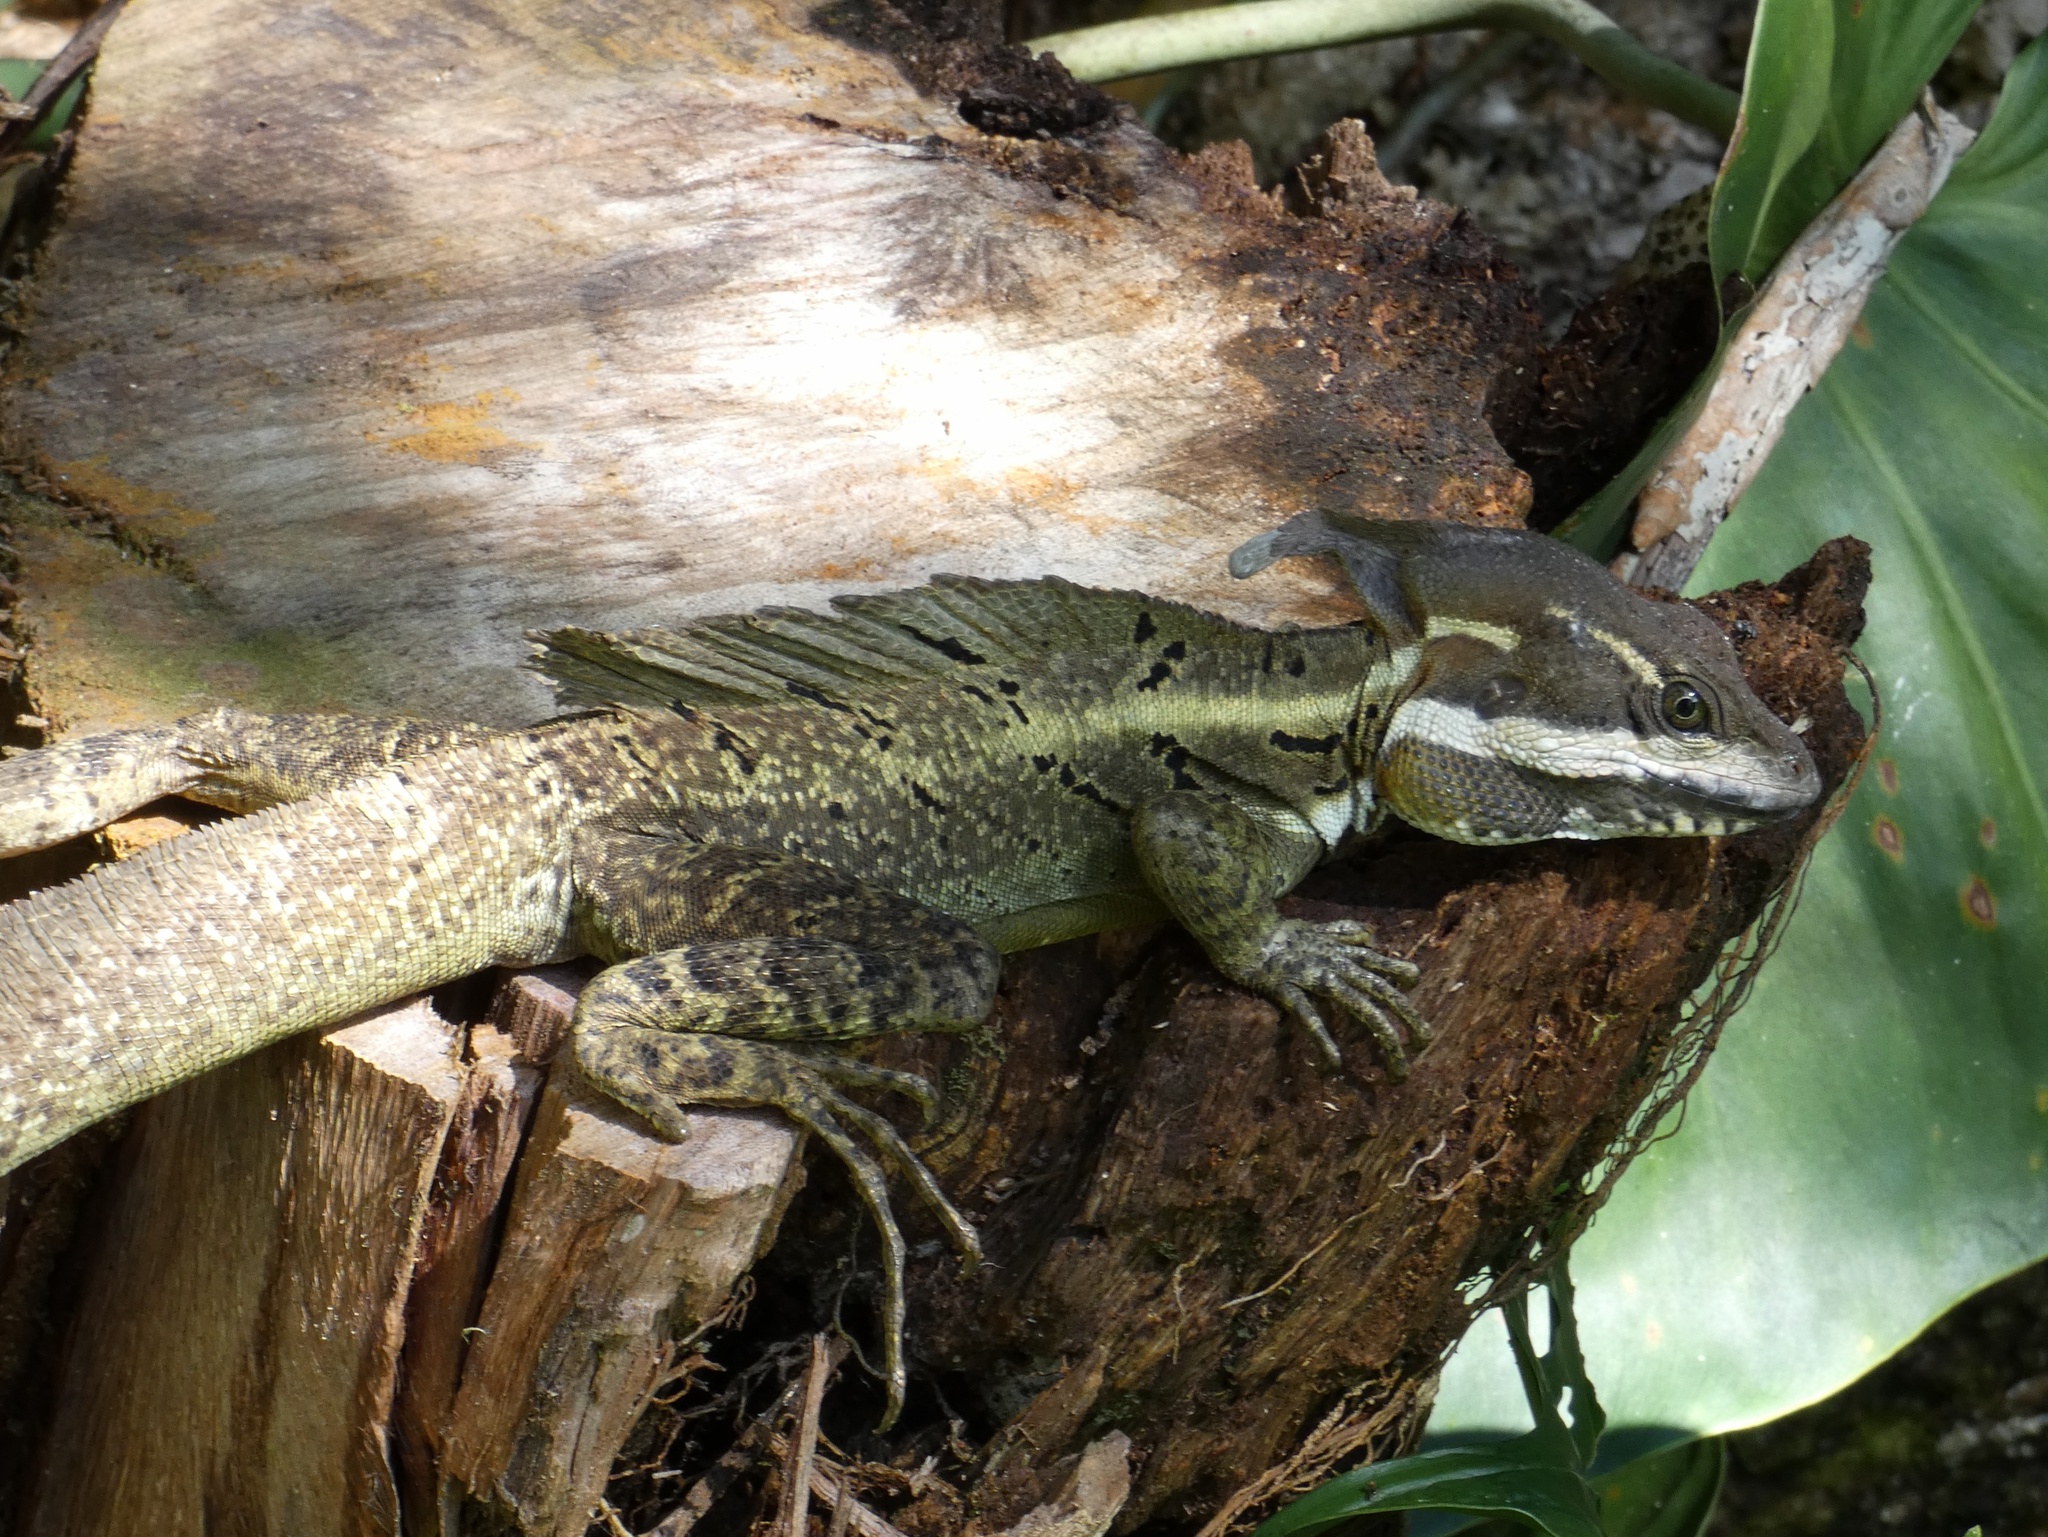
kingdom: Animalia
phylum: Chordata
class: Squamata
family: Corytophanidae
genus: Basiliscus
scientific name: Basiliscus basiliscus
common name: Common basilisk
